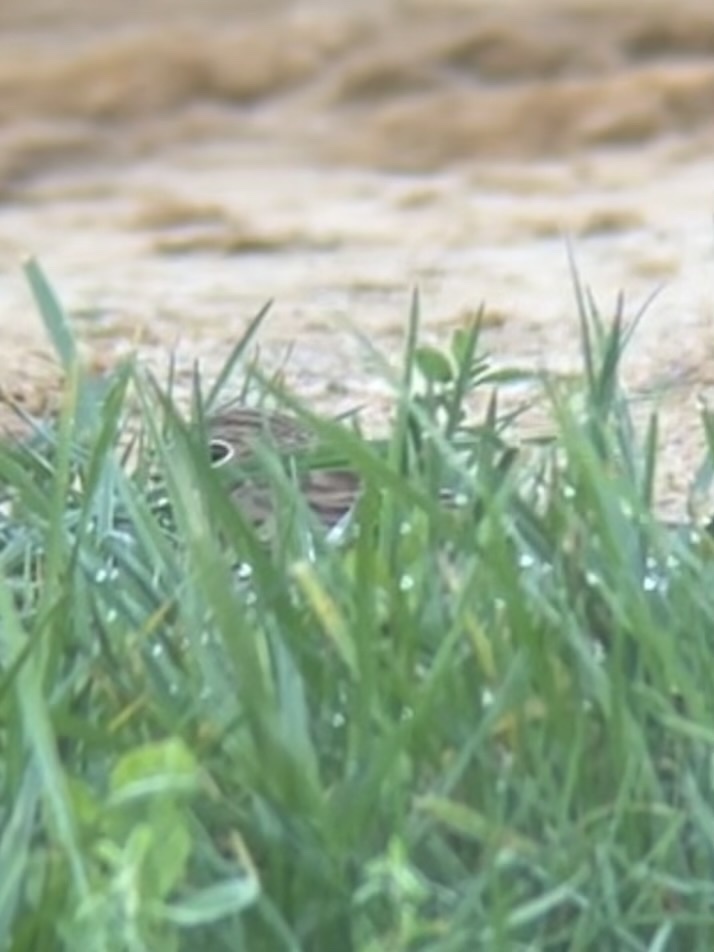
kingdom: Animalia
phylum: Chordata
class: Aves
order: Passeriformes
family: Passerellidae
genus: Pooecetes
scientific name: Pooecetes gramineus
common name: Vesper sparrow
